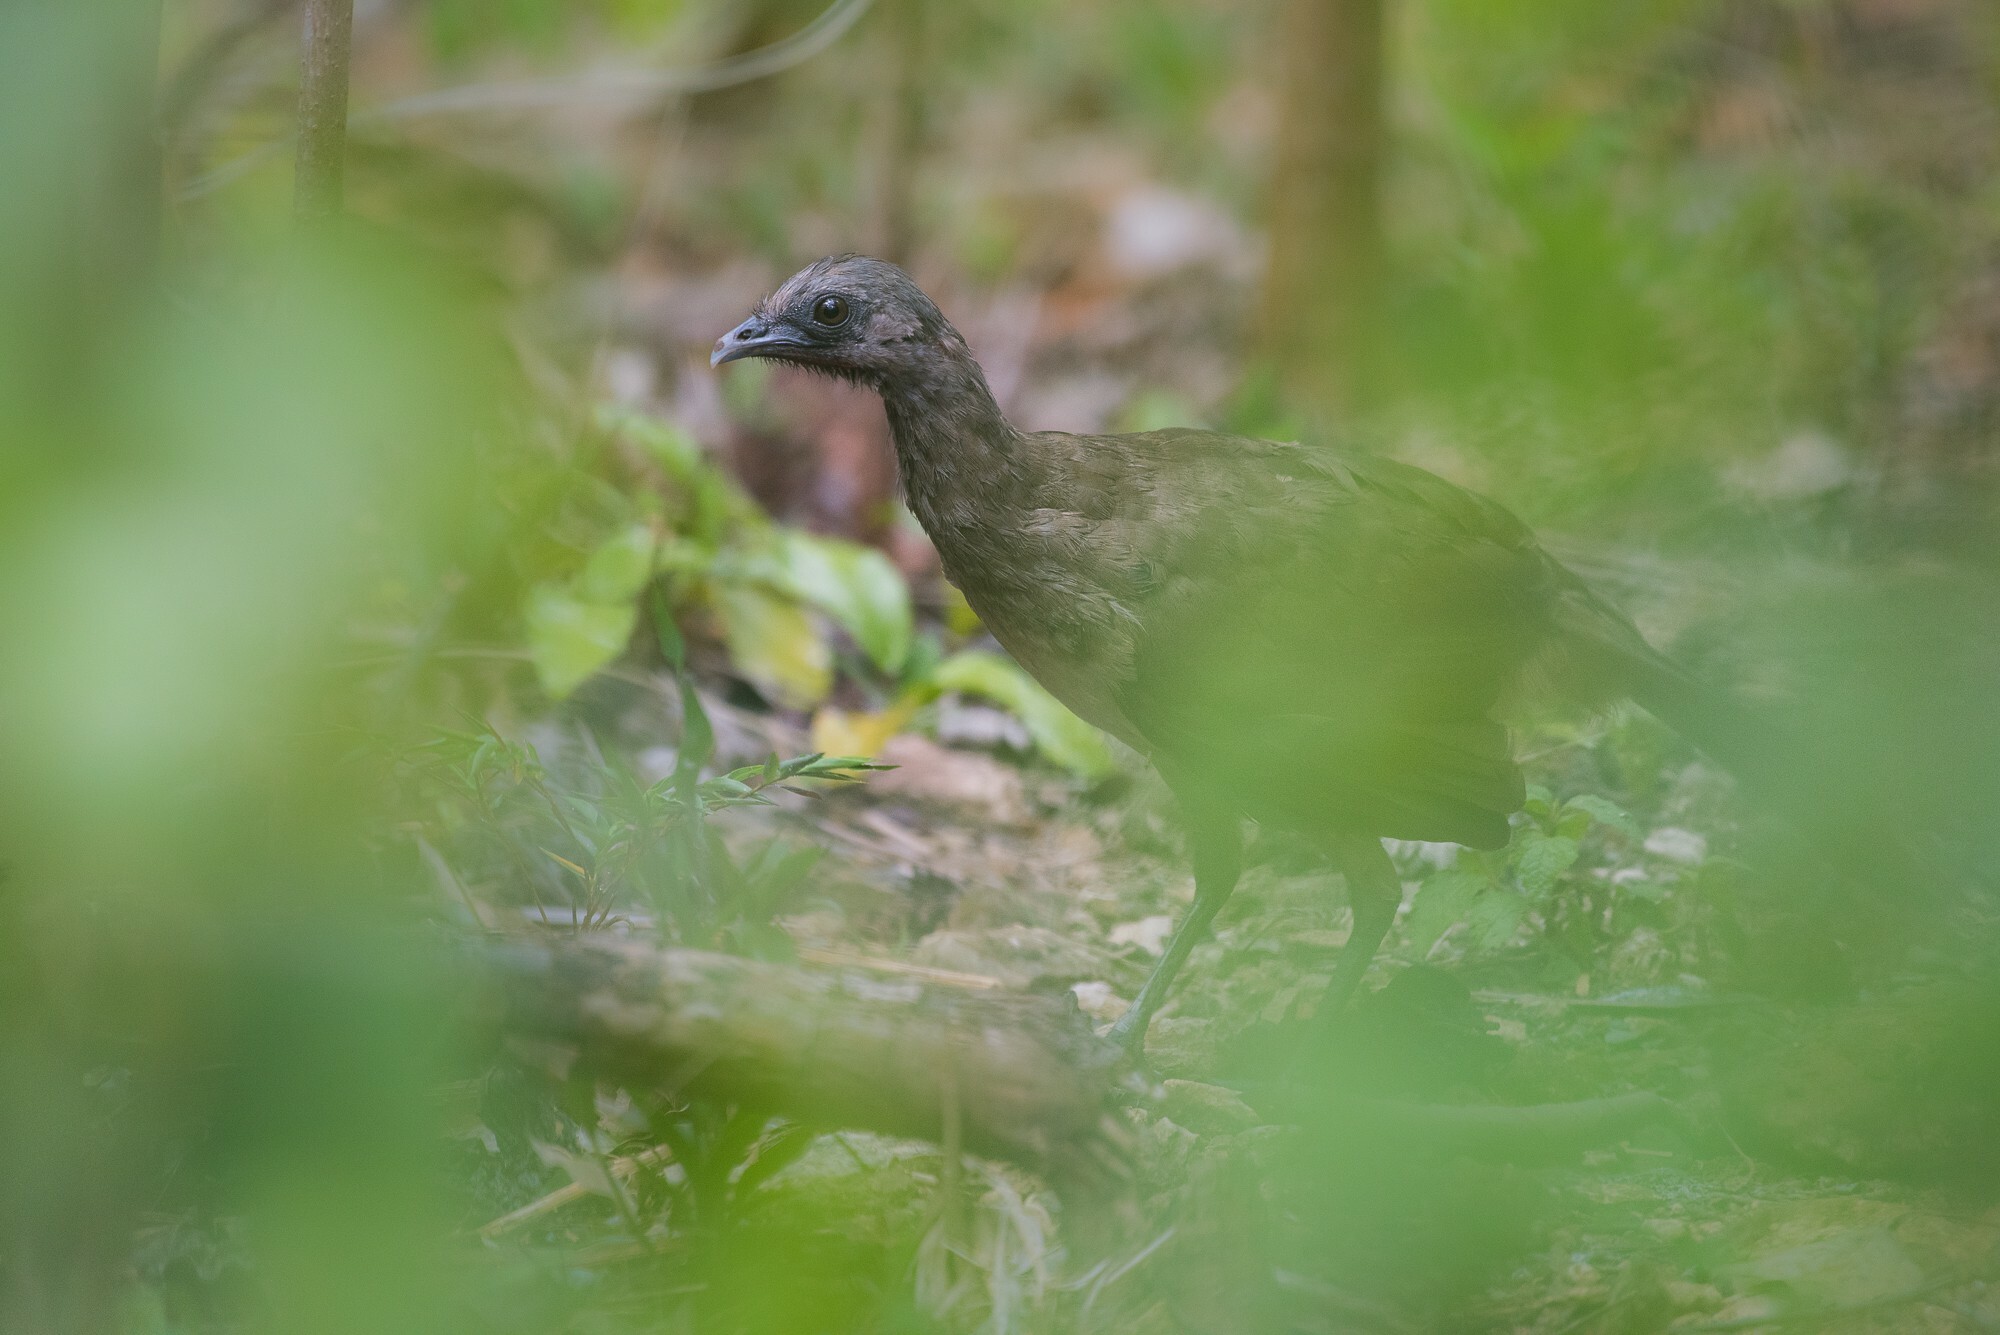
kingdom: Animalia
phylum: Chordata
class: Aves
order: Galliformes
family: Cracidae
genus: Ortalis
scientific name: Ortalis vetula
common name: Plain chachalaca
